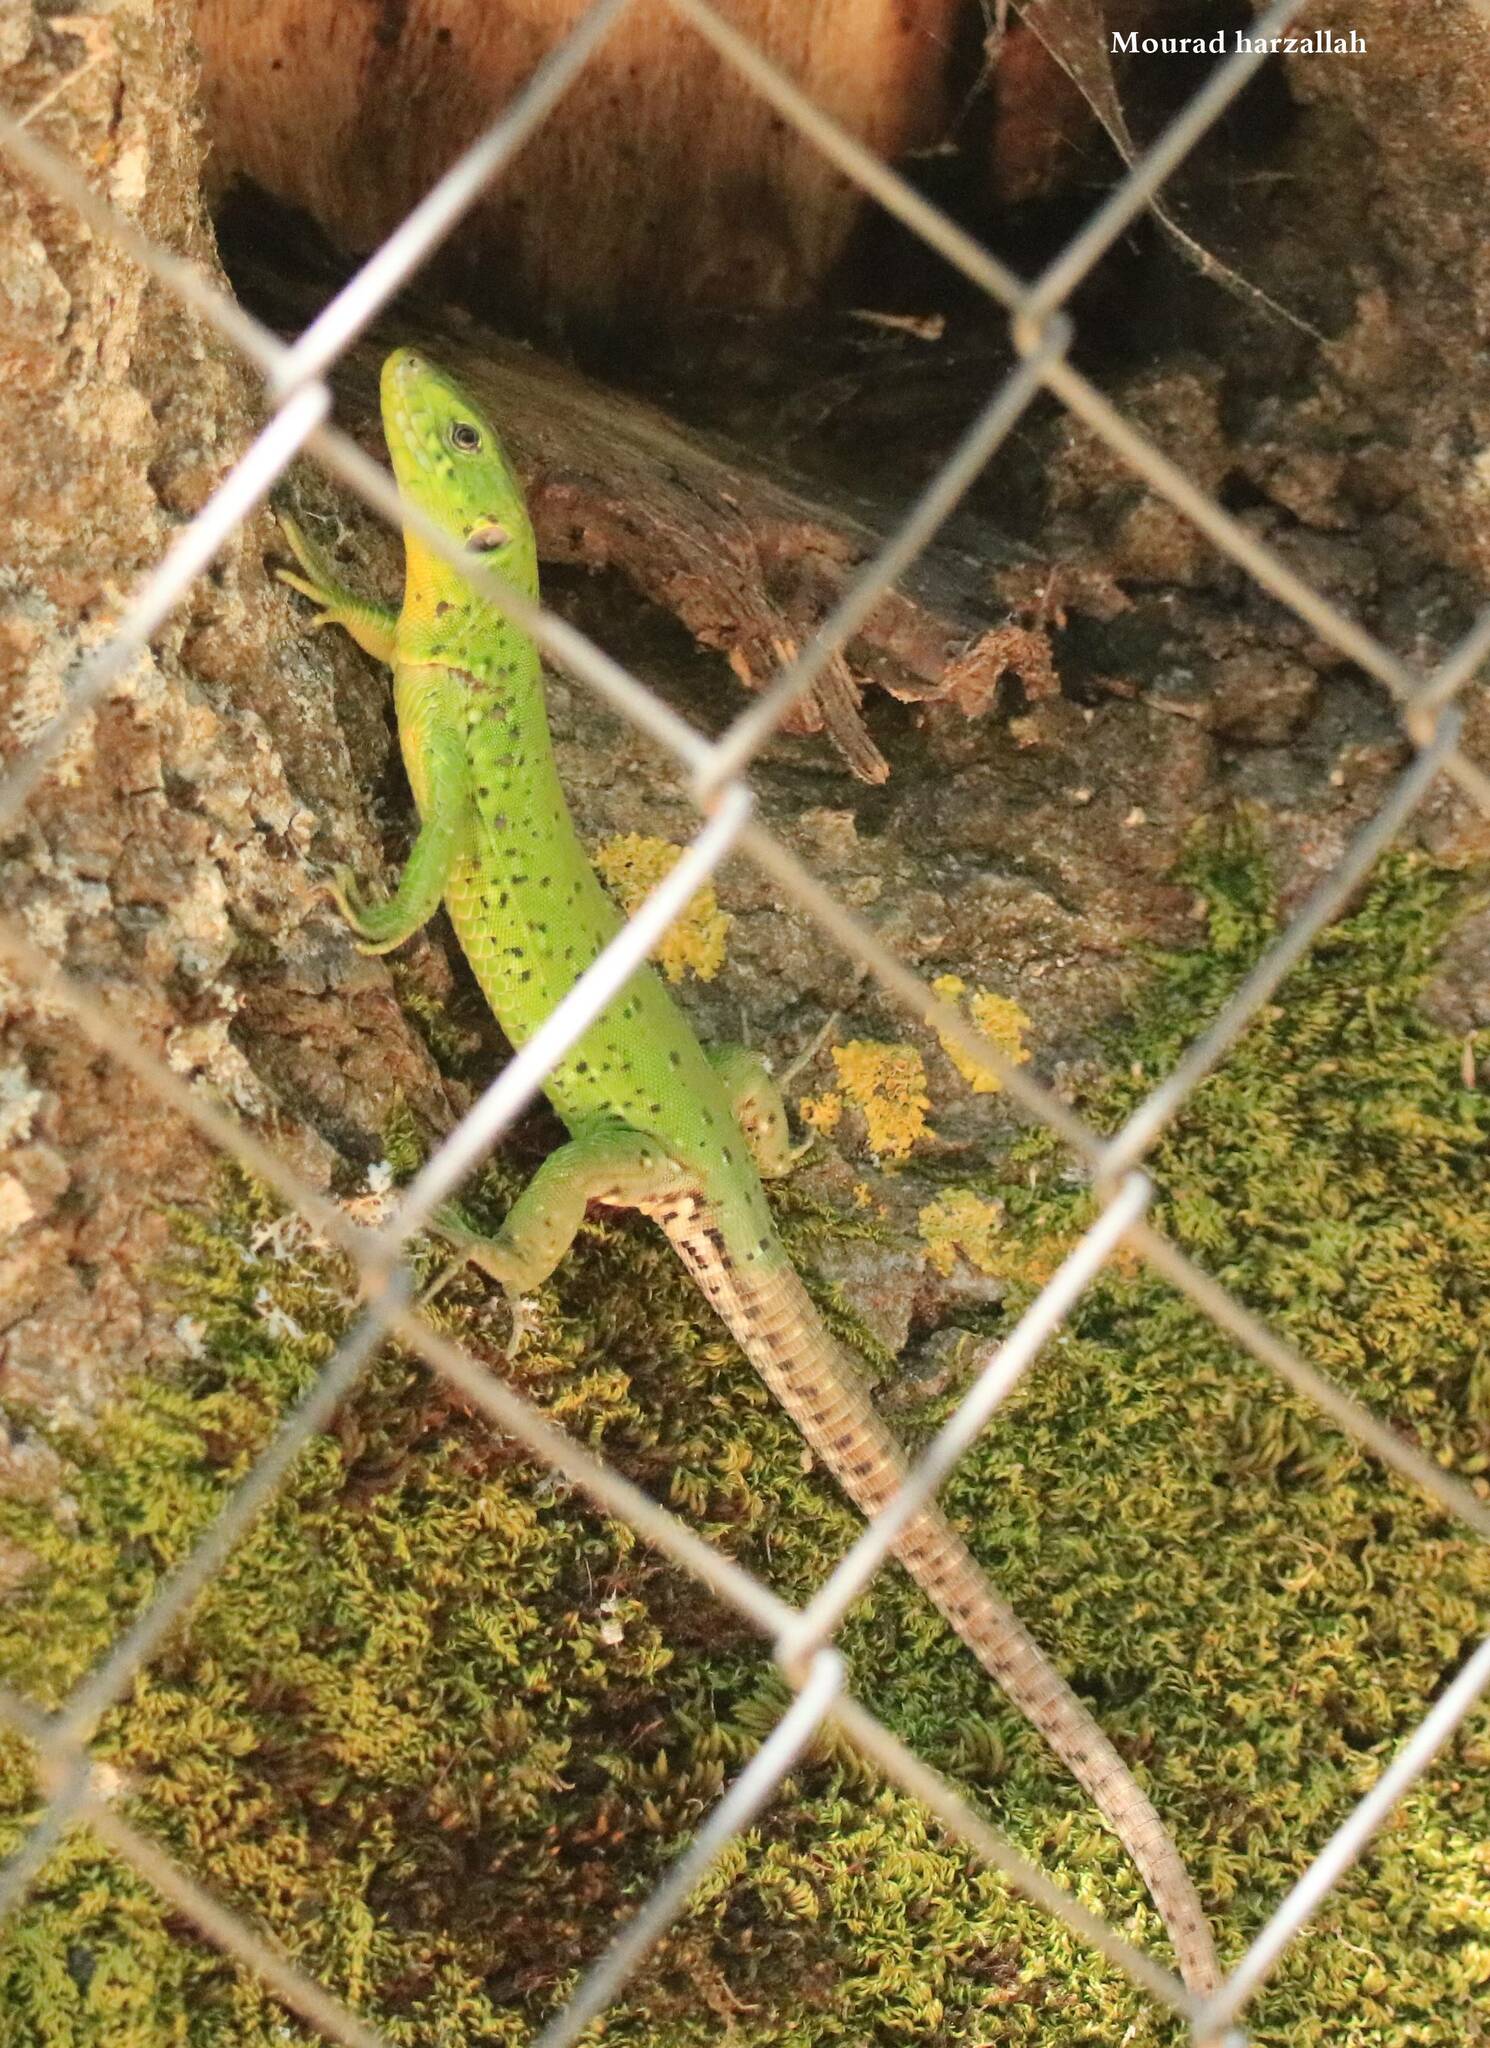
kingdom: Animalia
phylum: Chordata
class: Squamata
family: Lacertidae
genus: Timon
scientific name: Timon pater
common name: North african ocellated lizard
